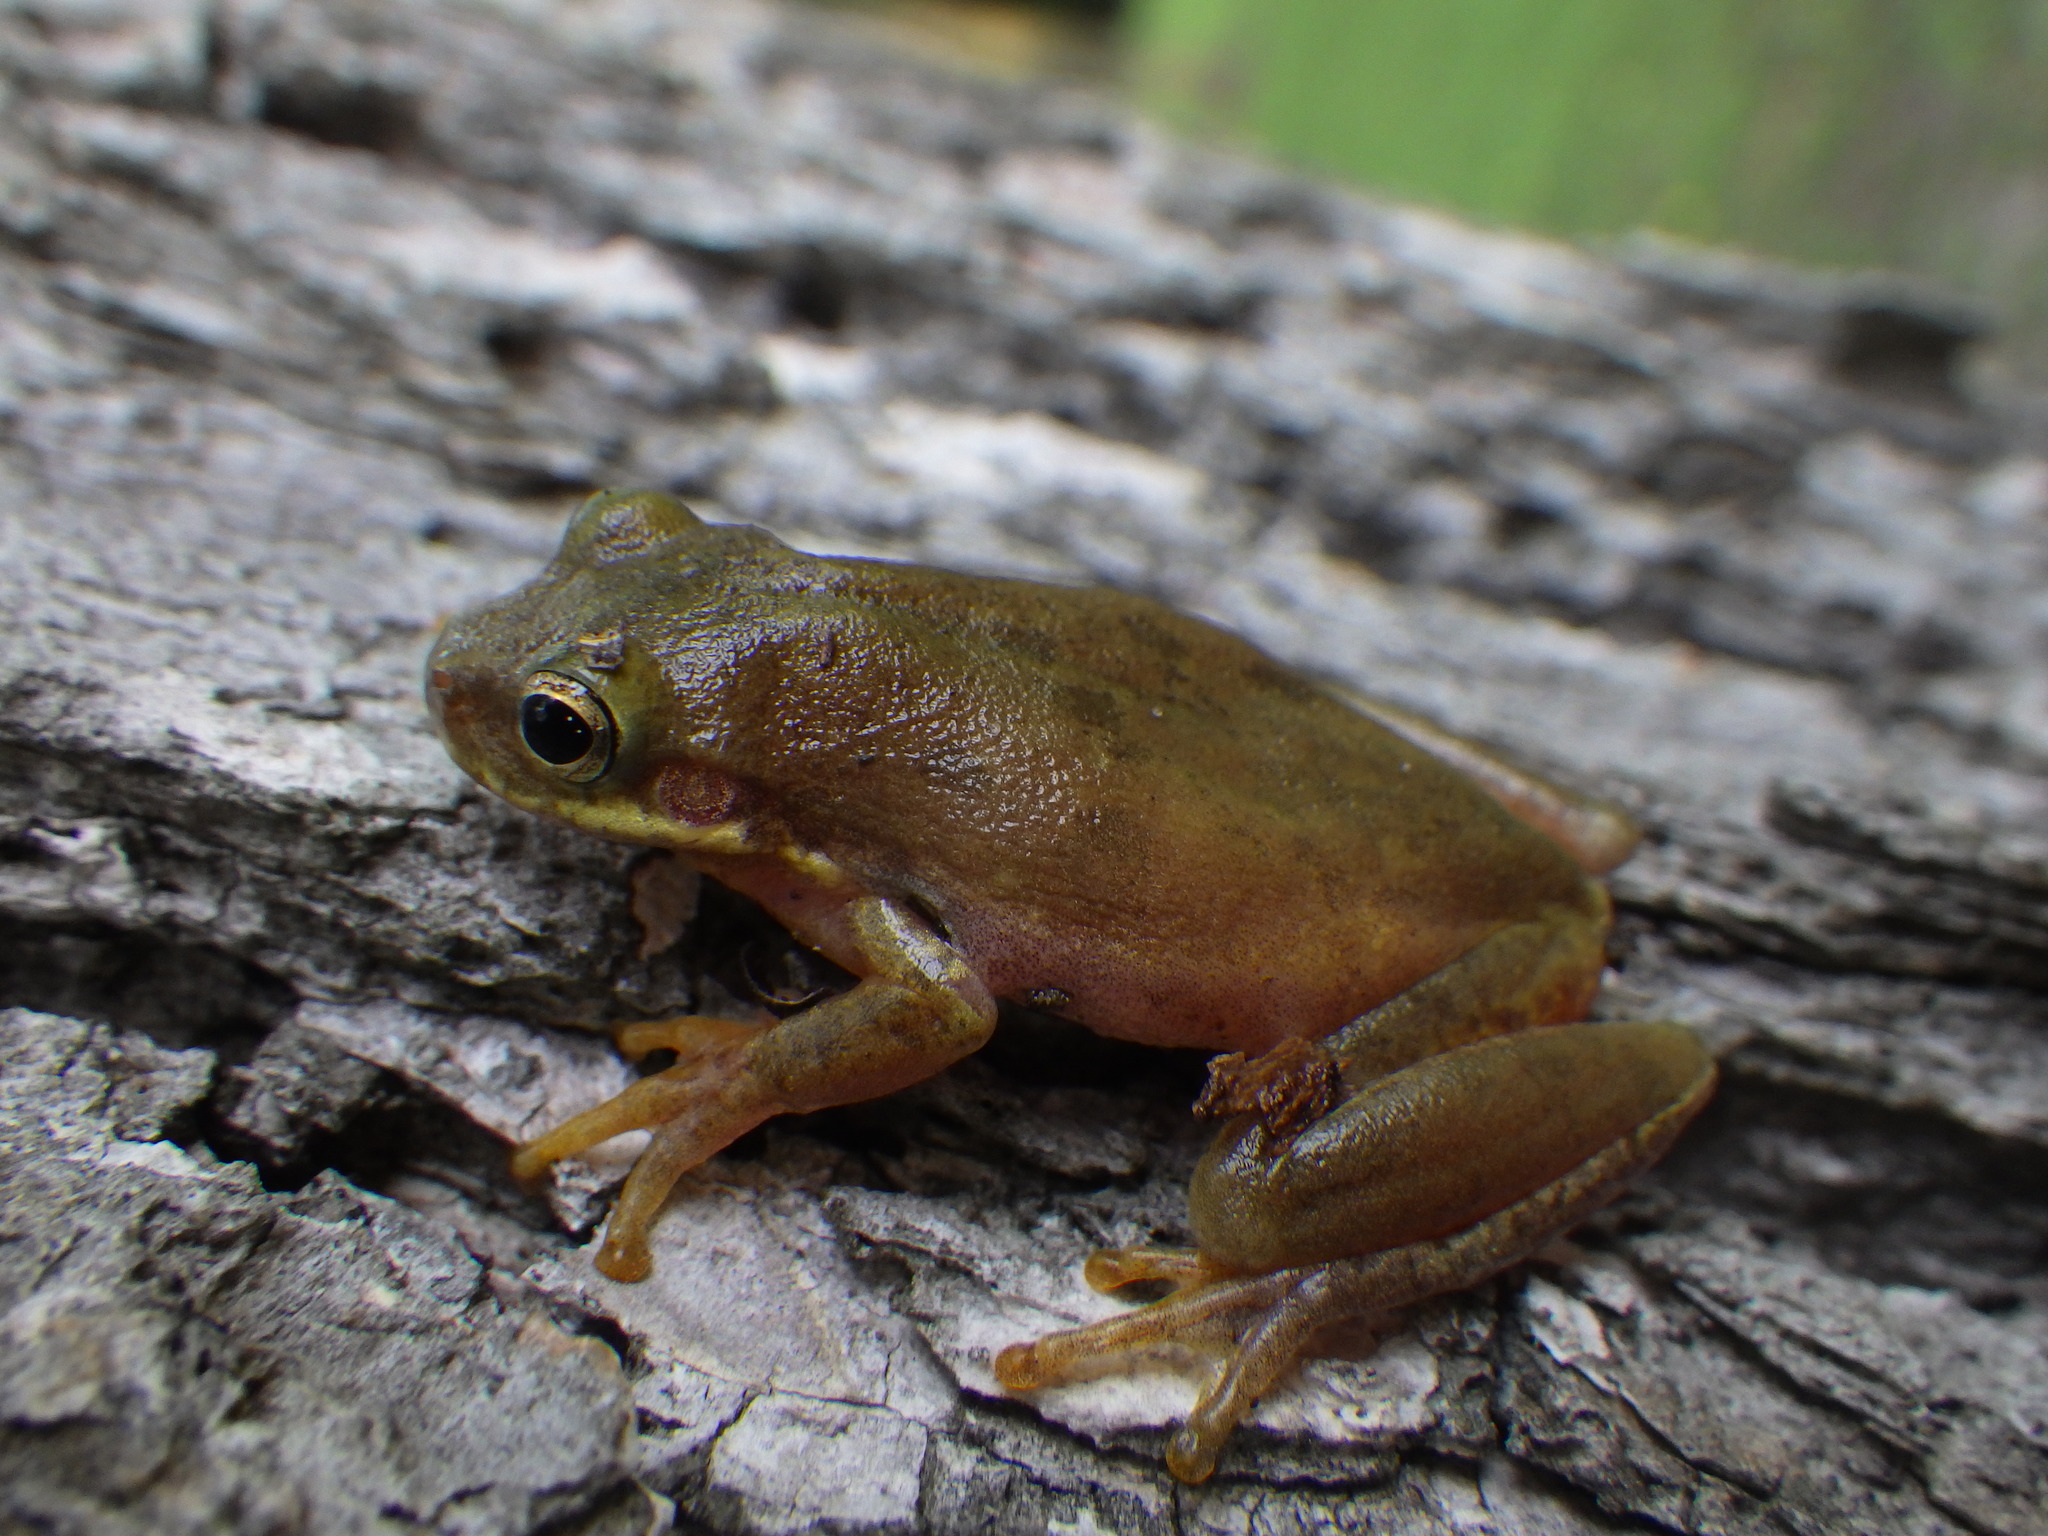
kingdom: Animalia
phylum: Chordata
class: Amphibia
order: Anura
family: Hylidae
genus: Dryophytes
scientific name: Dryophytes squirellus
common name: Squirrel treefrog
